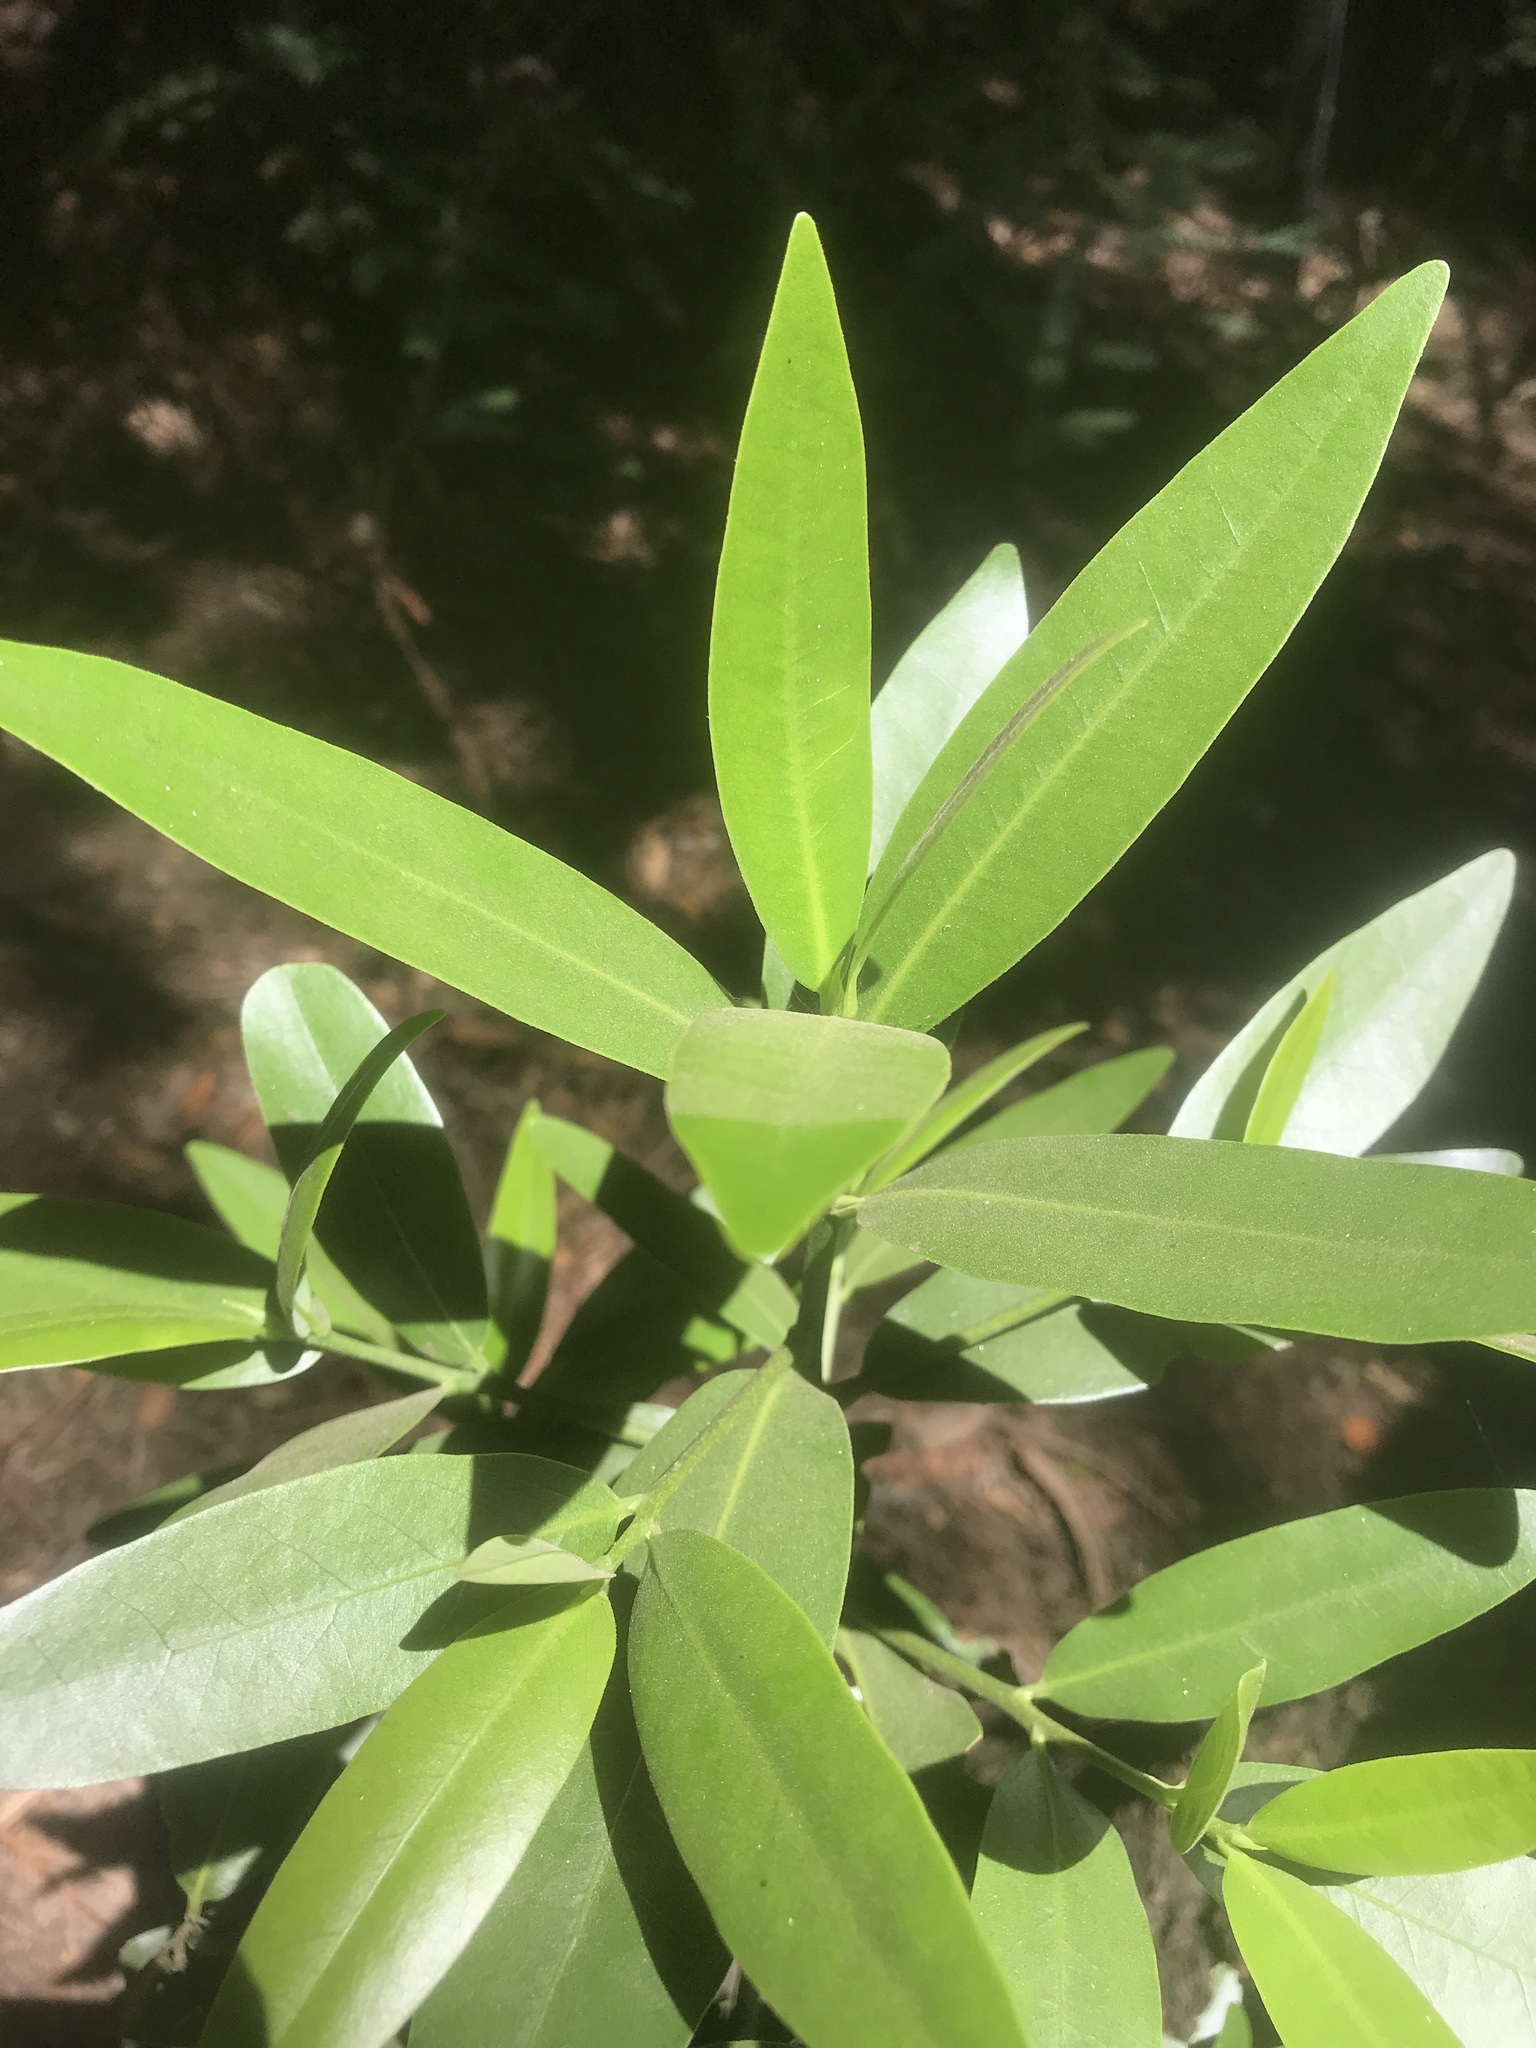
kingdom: Plantae
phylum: Tracheophyta
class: Magnoliopsida
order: Laurales
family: Lauraceae
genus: Umbellularia
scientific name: Umbellularia californica
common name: California bay
